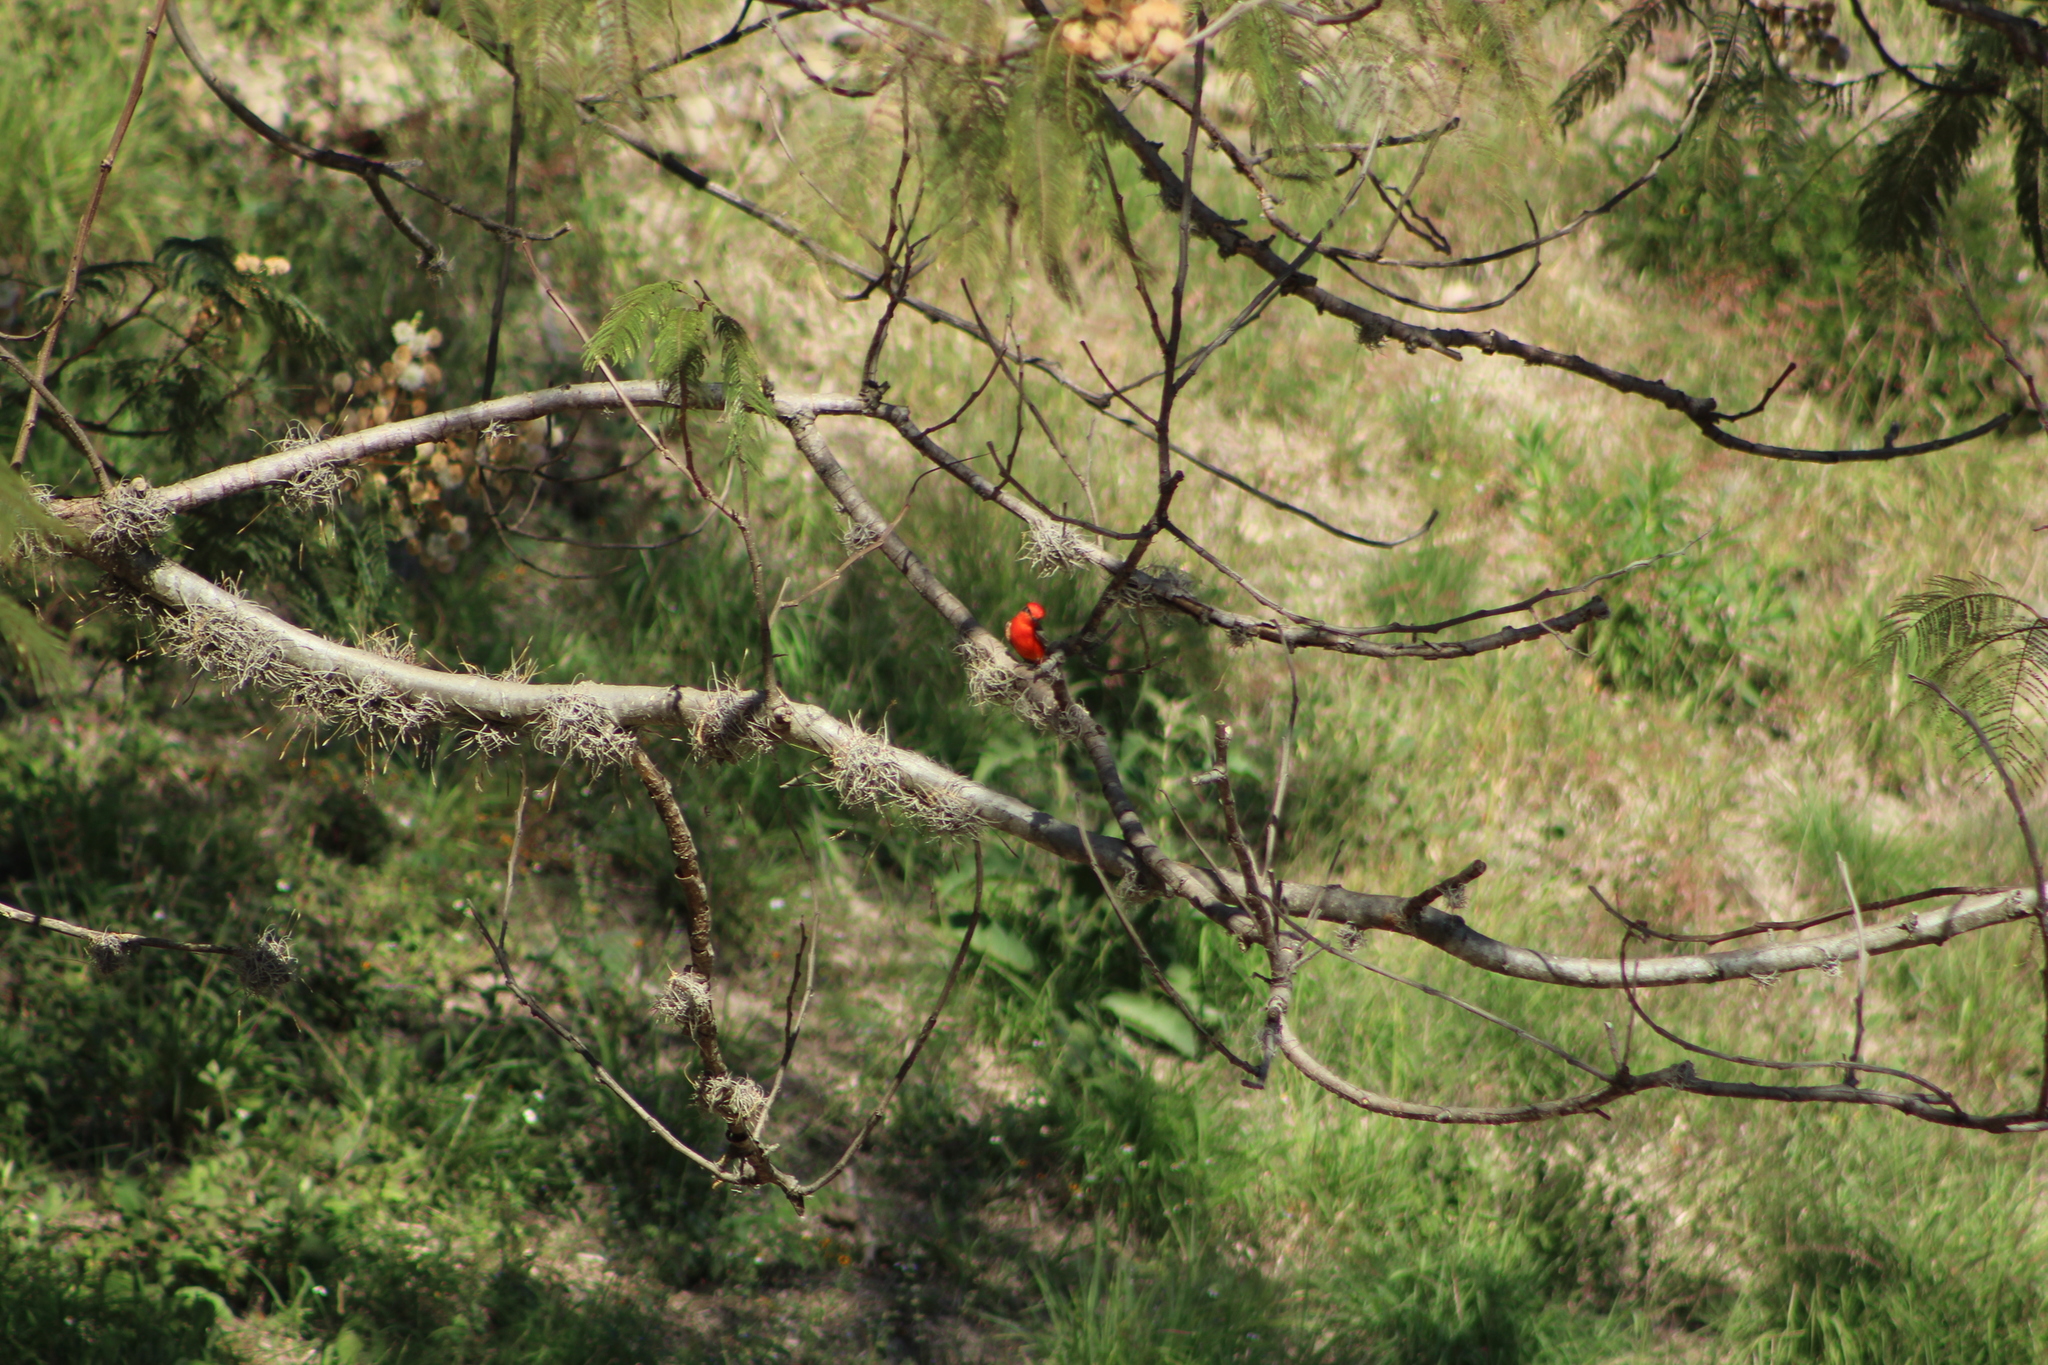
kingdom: Animalia
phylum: Chordata
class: Aves
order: Passeriformes
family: Tyrannidae
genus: Pyrocephalus
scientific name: Pyrocephalus rubinus
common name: Vermilion flycatcher
